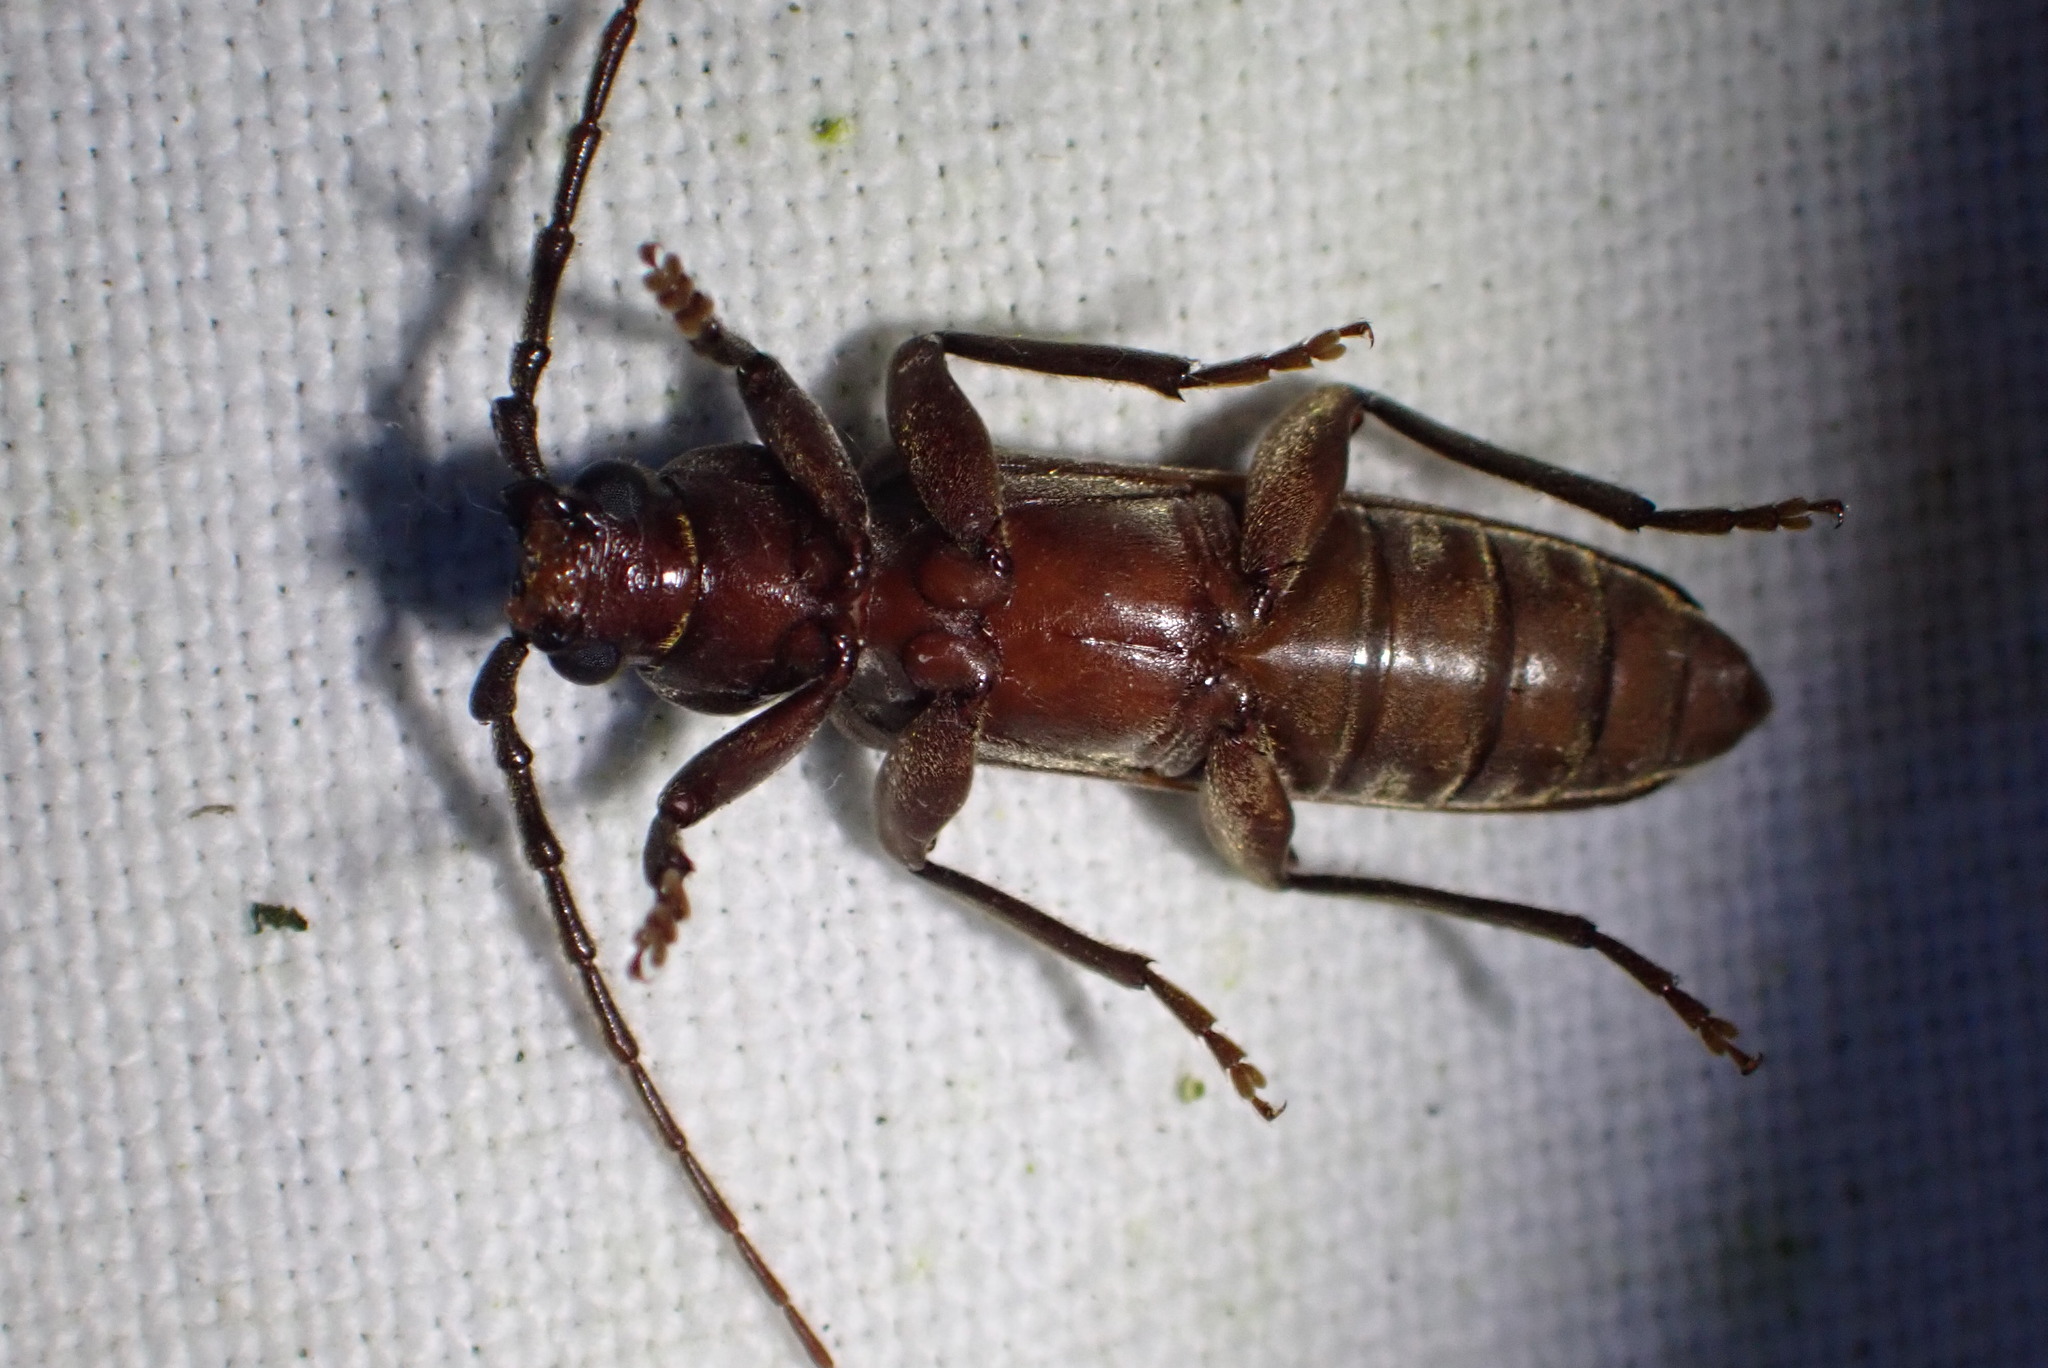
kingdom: Animalia
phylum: Arthropoda
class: Insecta
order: Coleoptera
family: Cerambycidae
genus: Arhopalus
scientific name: Arhopalus rusticus
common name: Rust pine borer
